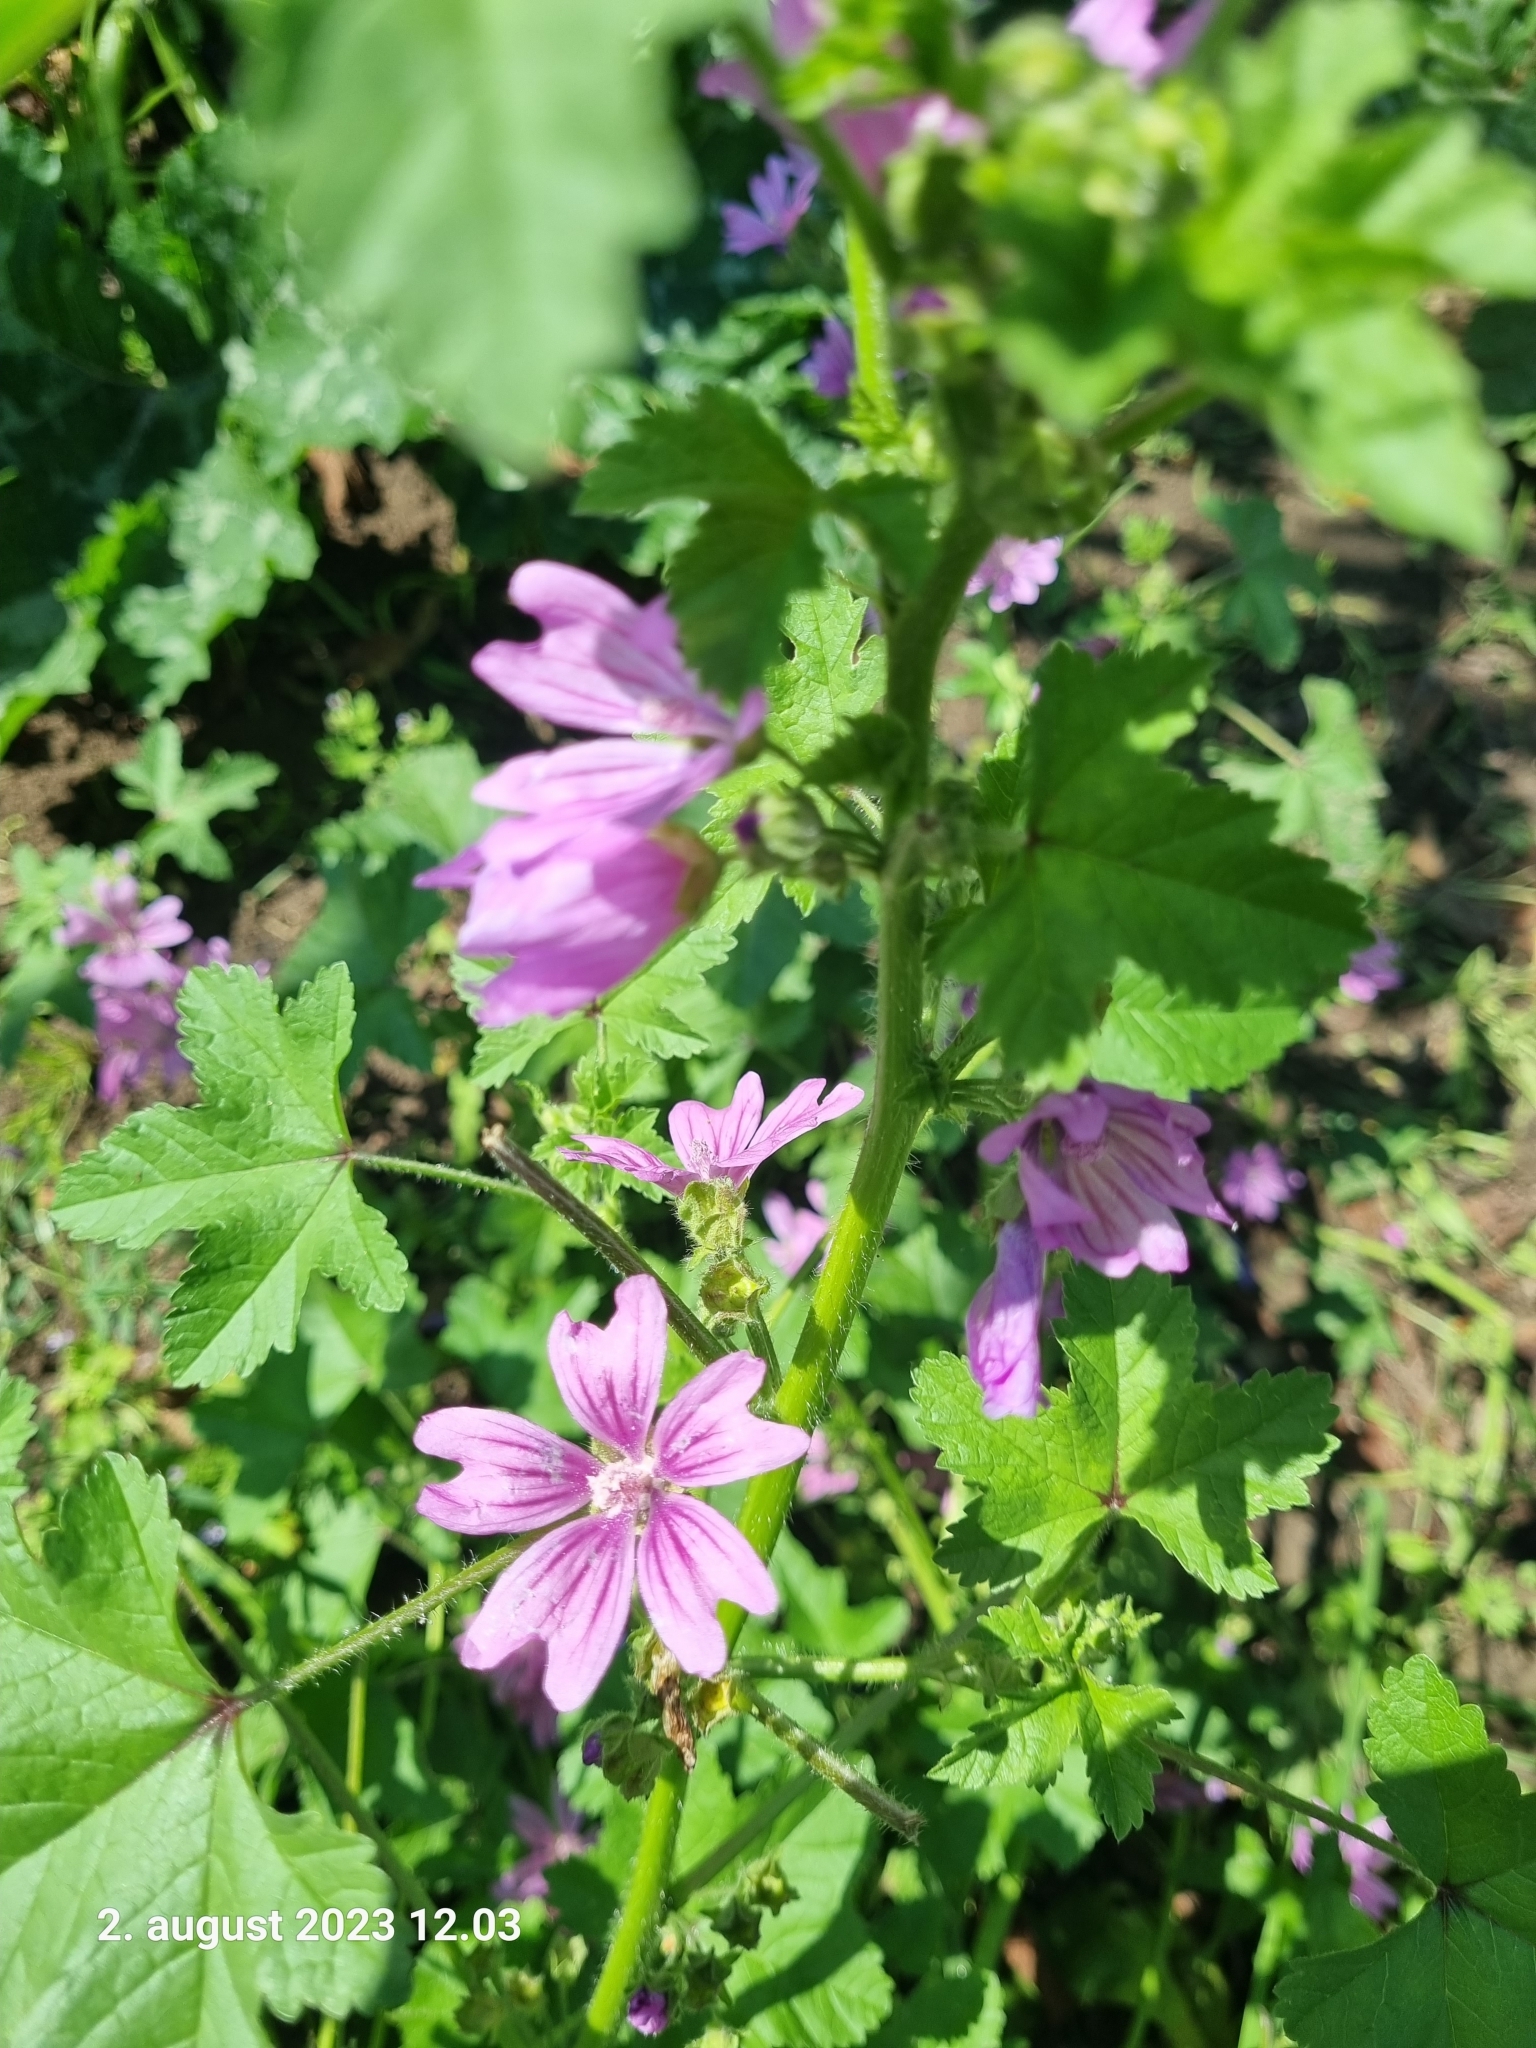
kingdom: Plantae
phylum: Tracheophyta
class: Magnoliopsida
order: Malvales
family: Malvaceae
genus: Malva
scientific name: Malva sylvestris
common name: Common mallow
